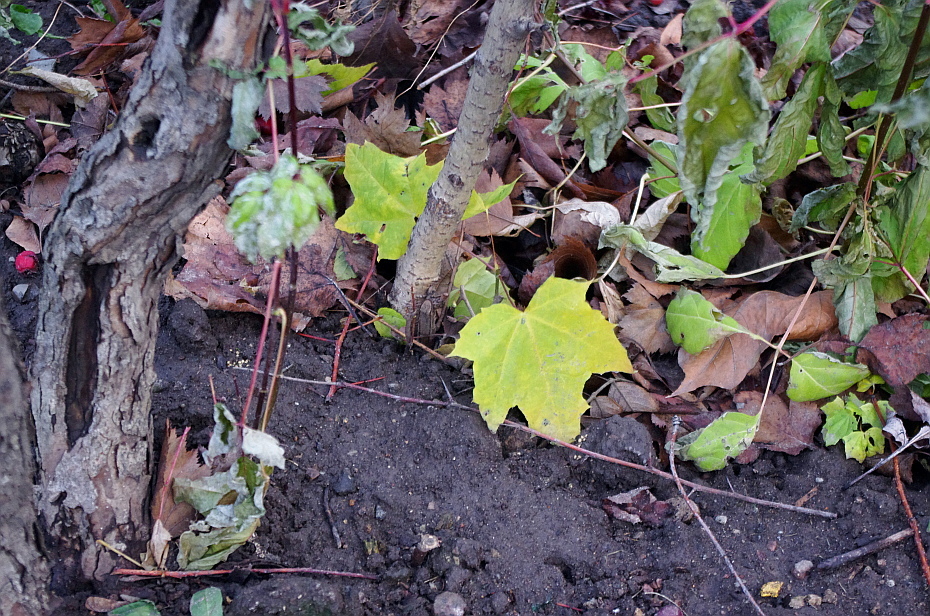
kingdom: Plantae
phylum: Tracheophyta
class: Magnoliopsida
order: Sapindales
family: Sapindaceae
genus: Acer
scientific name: Acer platanoides
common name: Norway maple
